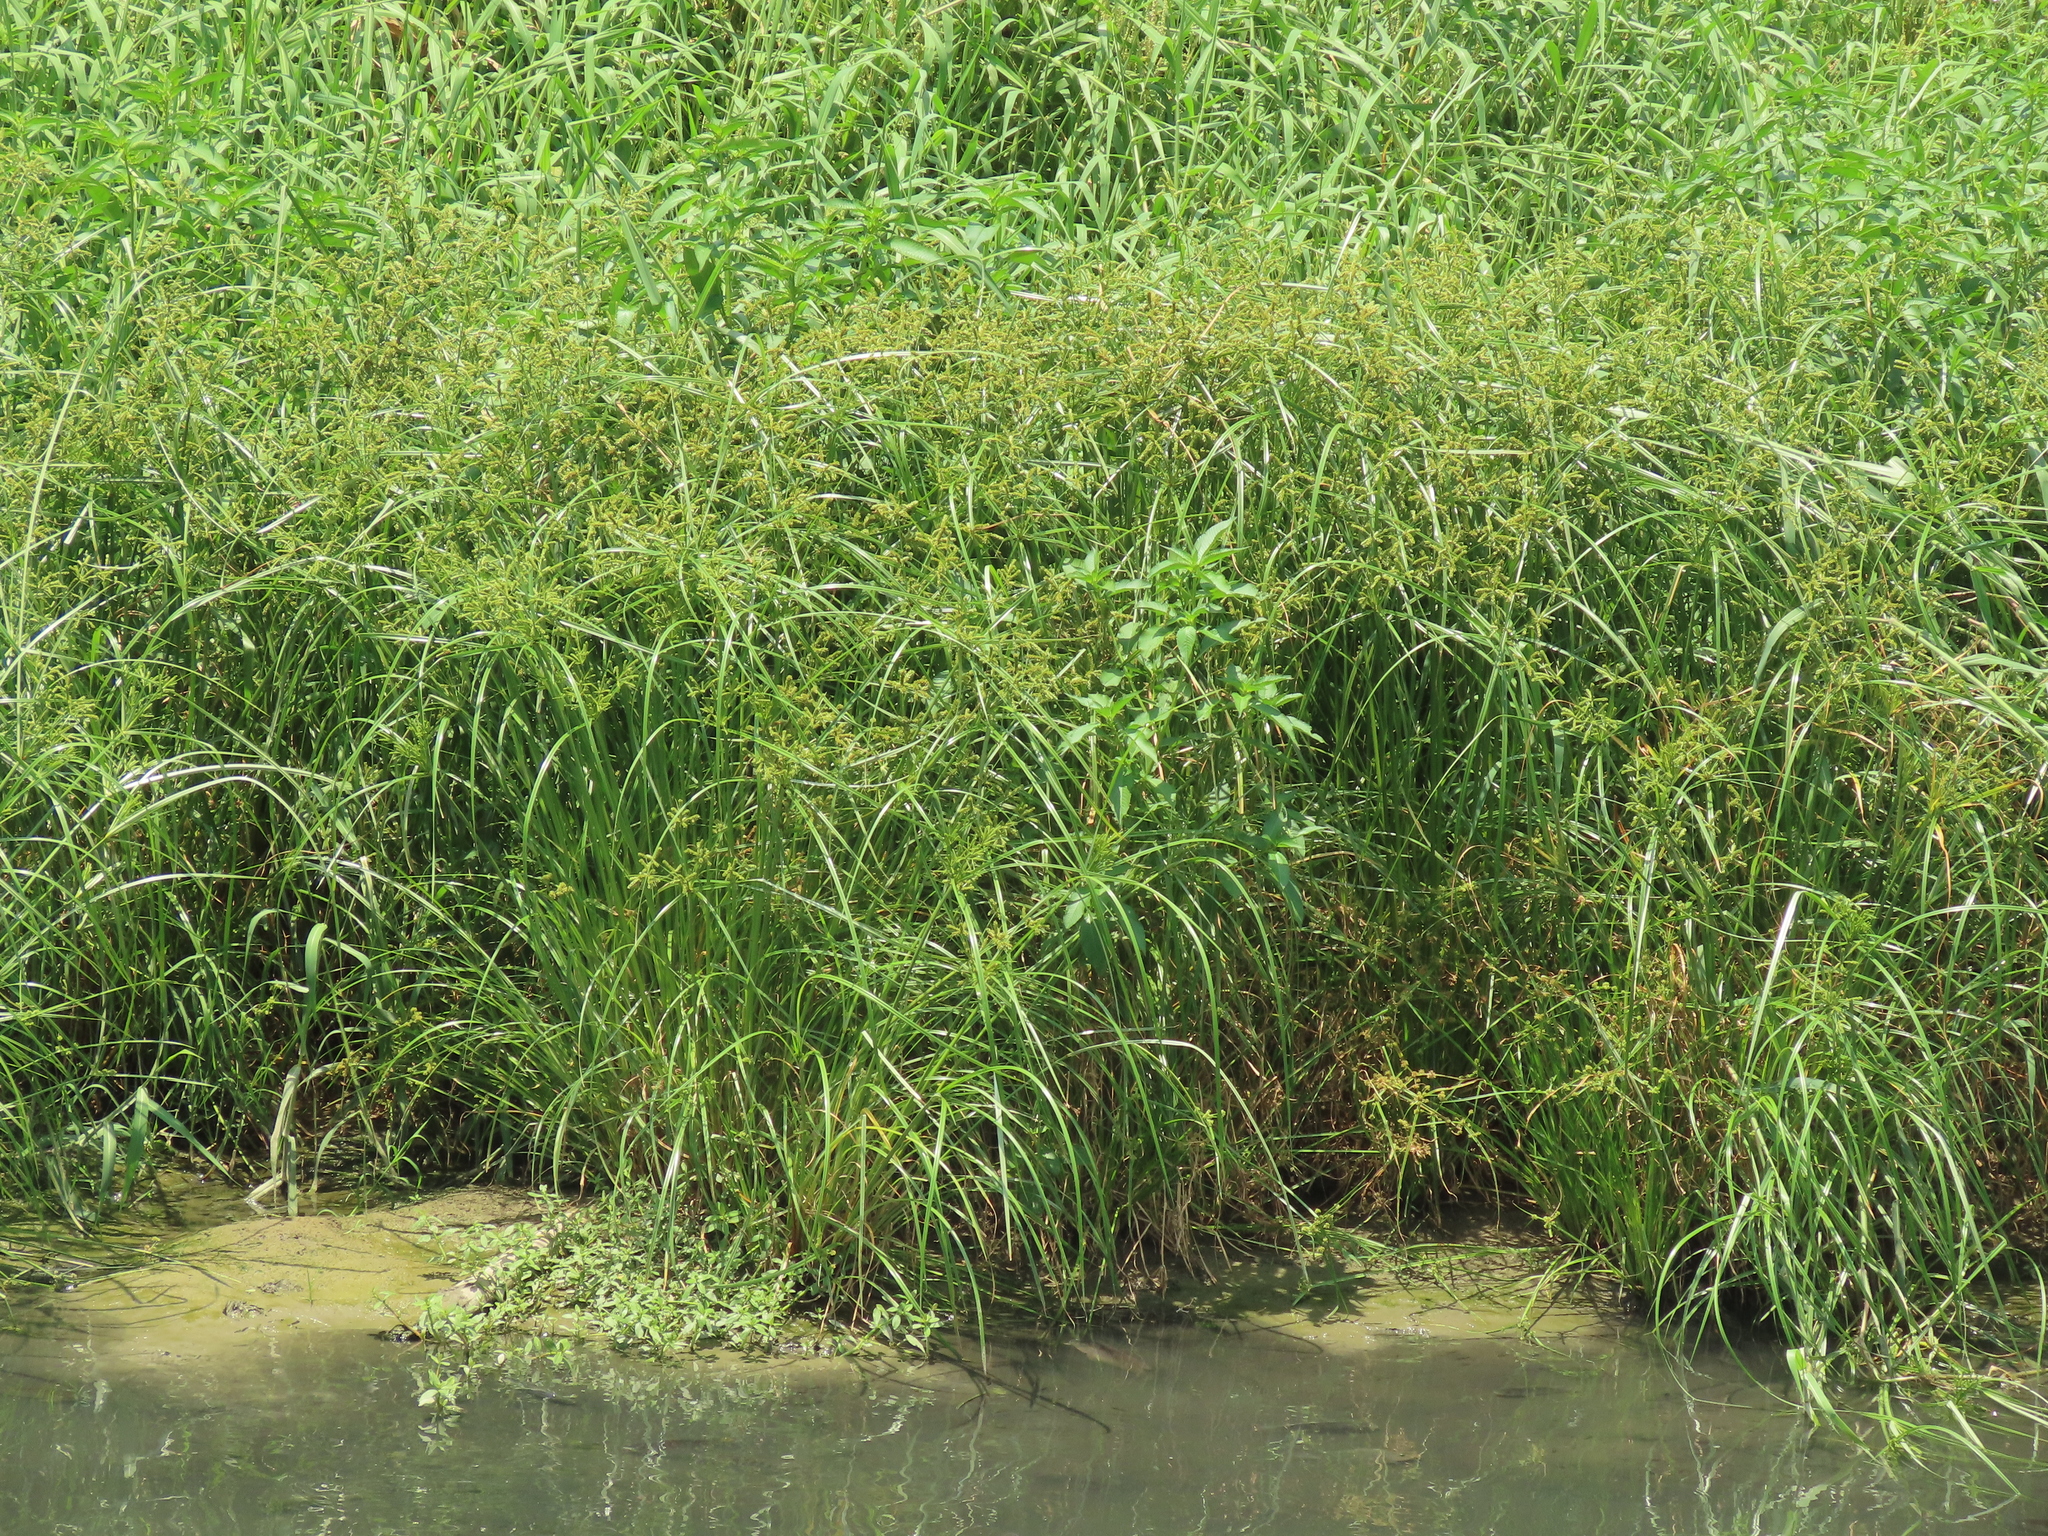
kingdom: Plantae
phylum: Tracheophyta
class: Liliopsida
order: Poales
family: Cyperaceae
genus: Cyperus
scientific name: Cyperus imbricatus
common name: Shingle flatsedge
